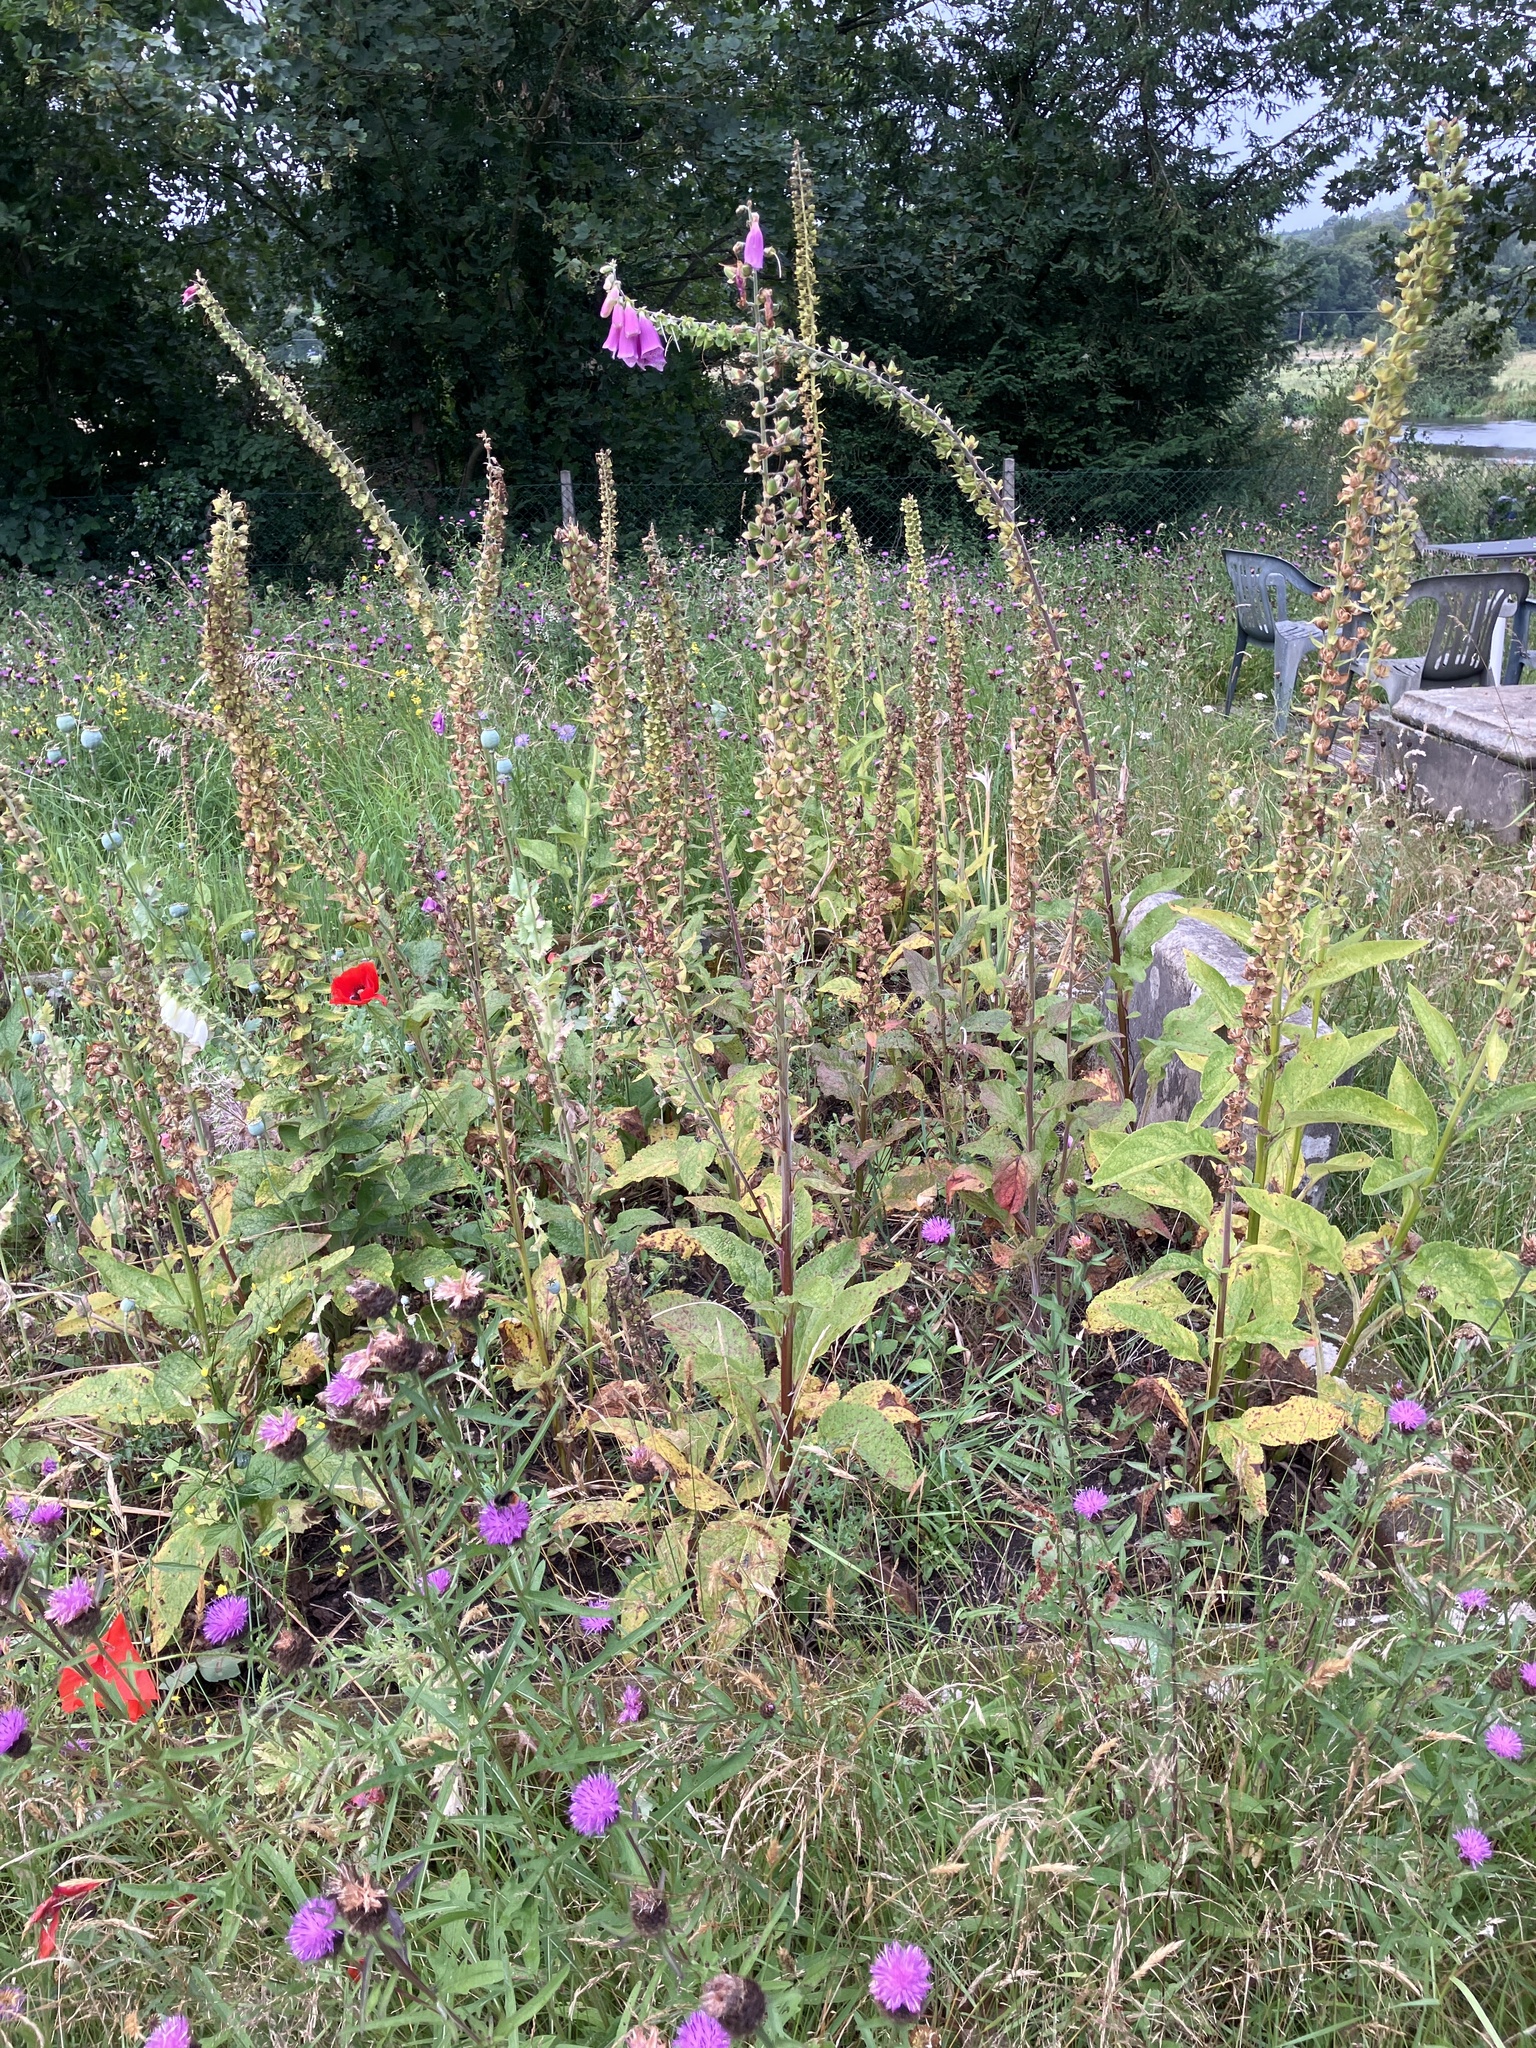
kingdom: Plantae
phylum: Tracheophyta
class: Magnoliopsida
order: Lamiales
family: Plantaginaceae
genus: Digitalis
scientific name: Digitalis purpurea
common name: Foxglove
